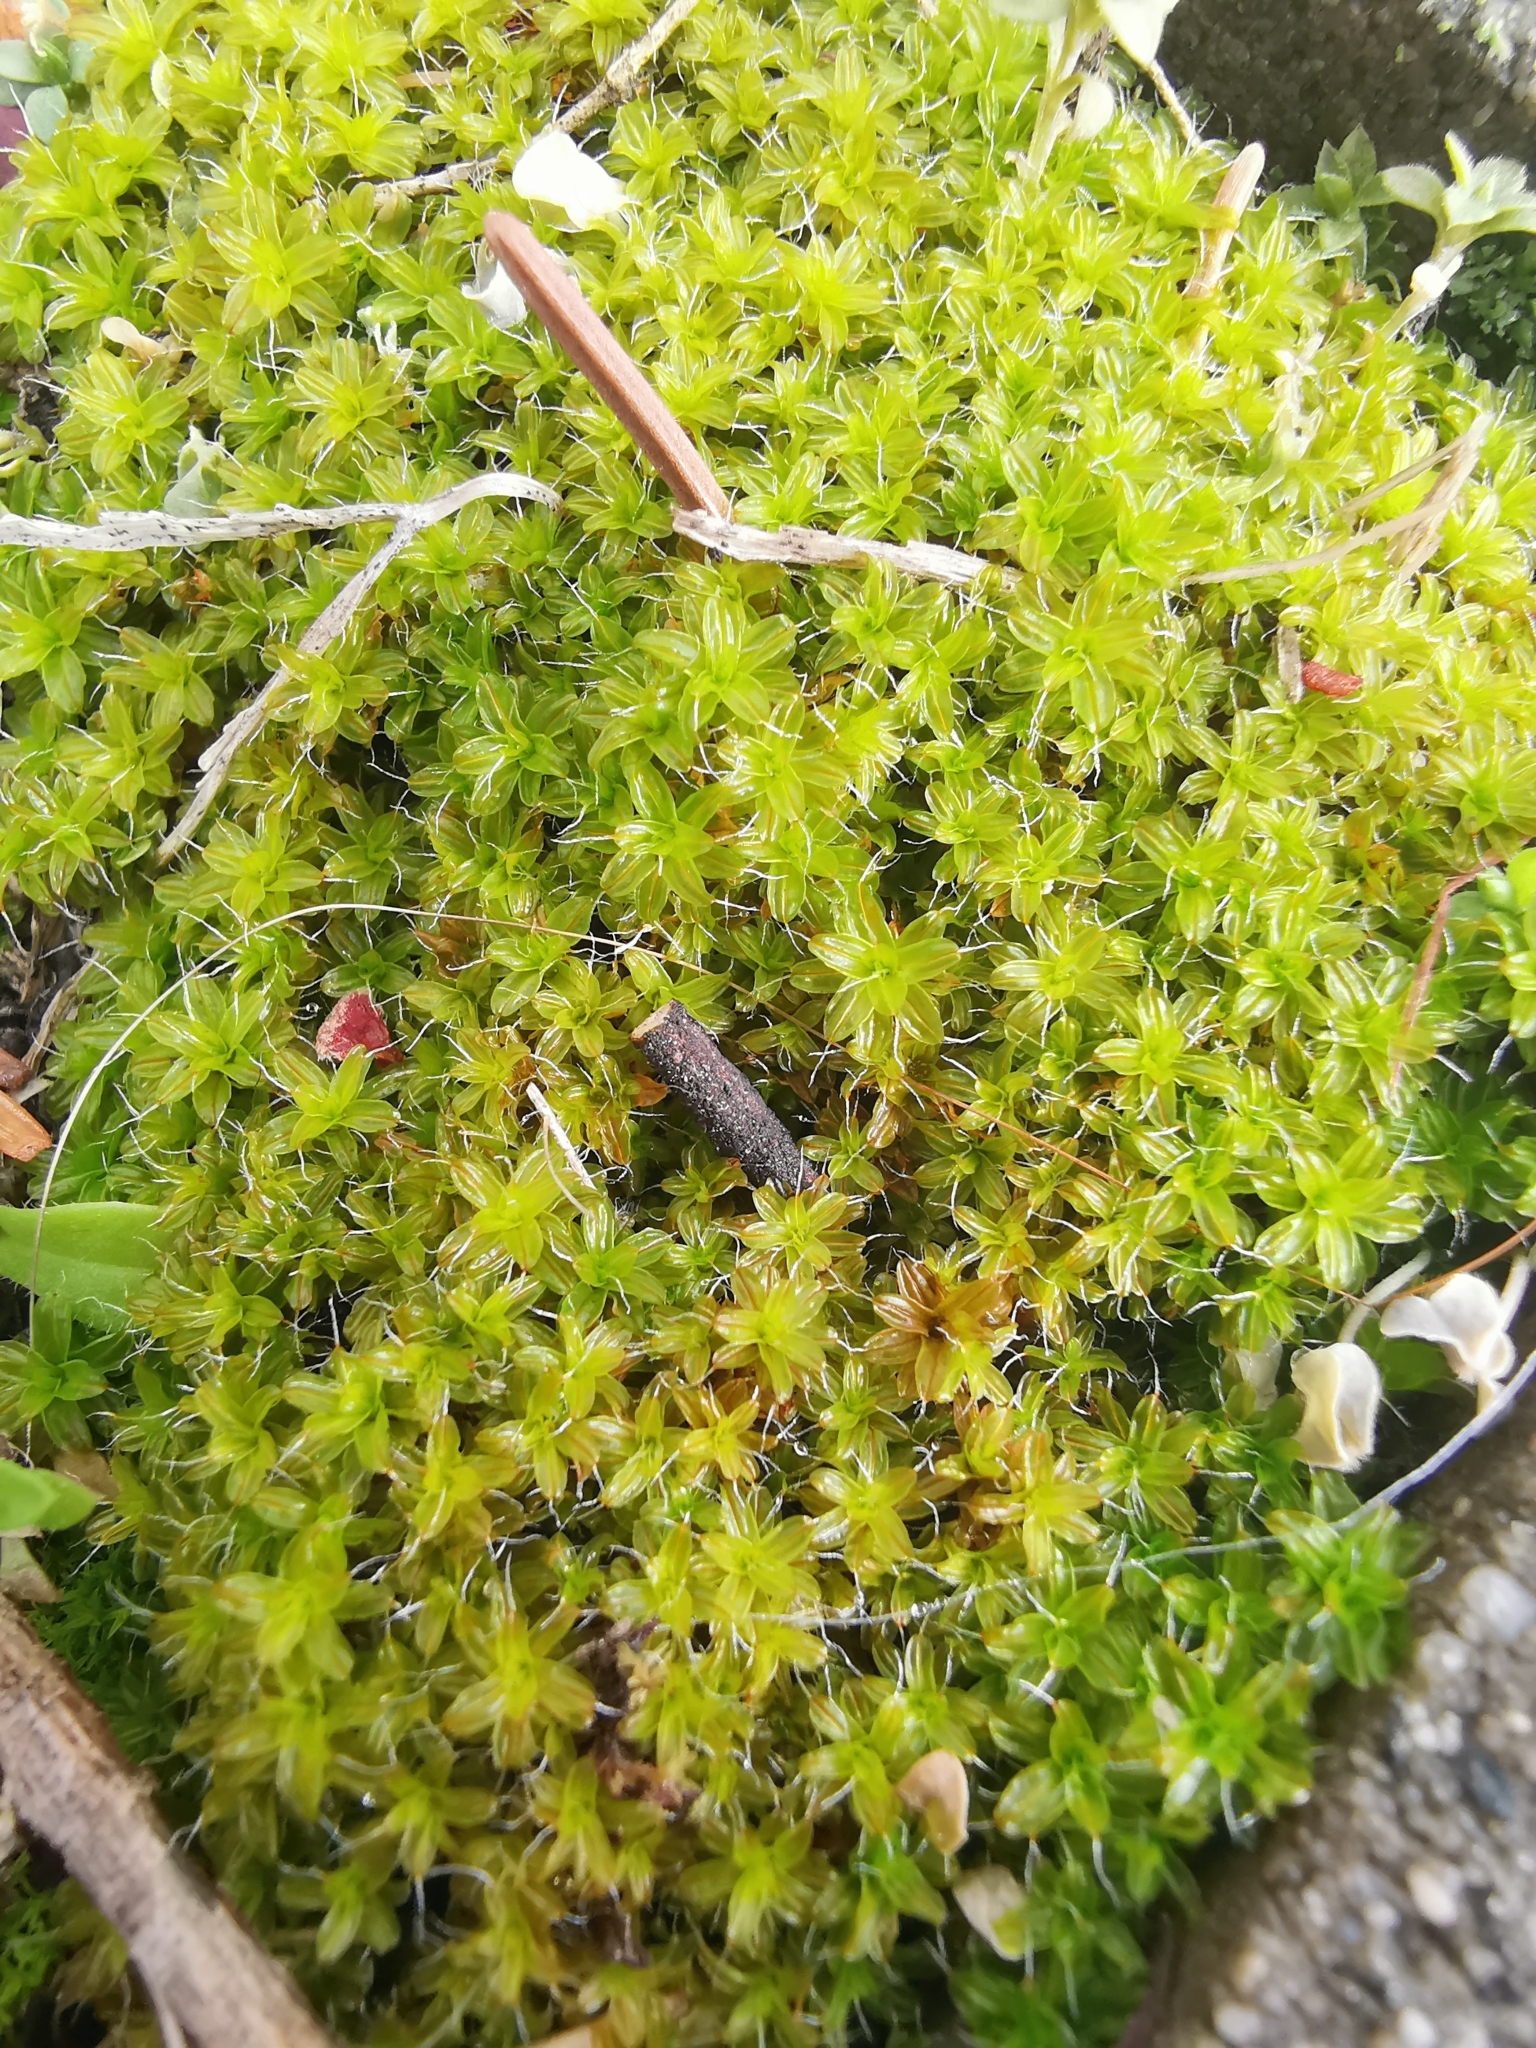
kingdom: Plantae
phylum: Bryophyta
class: Bryopsida
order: Pottiales
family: Pottiaceae
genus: Syntrichia
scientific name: Syntrichia ruralis
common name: Sidewalk screw moss
